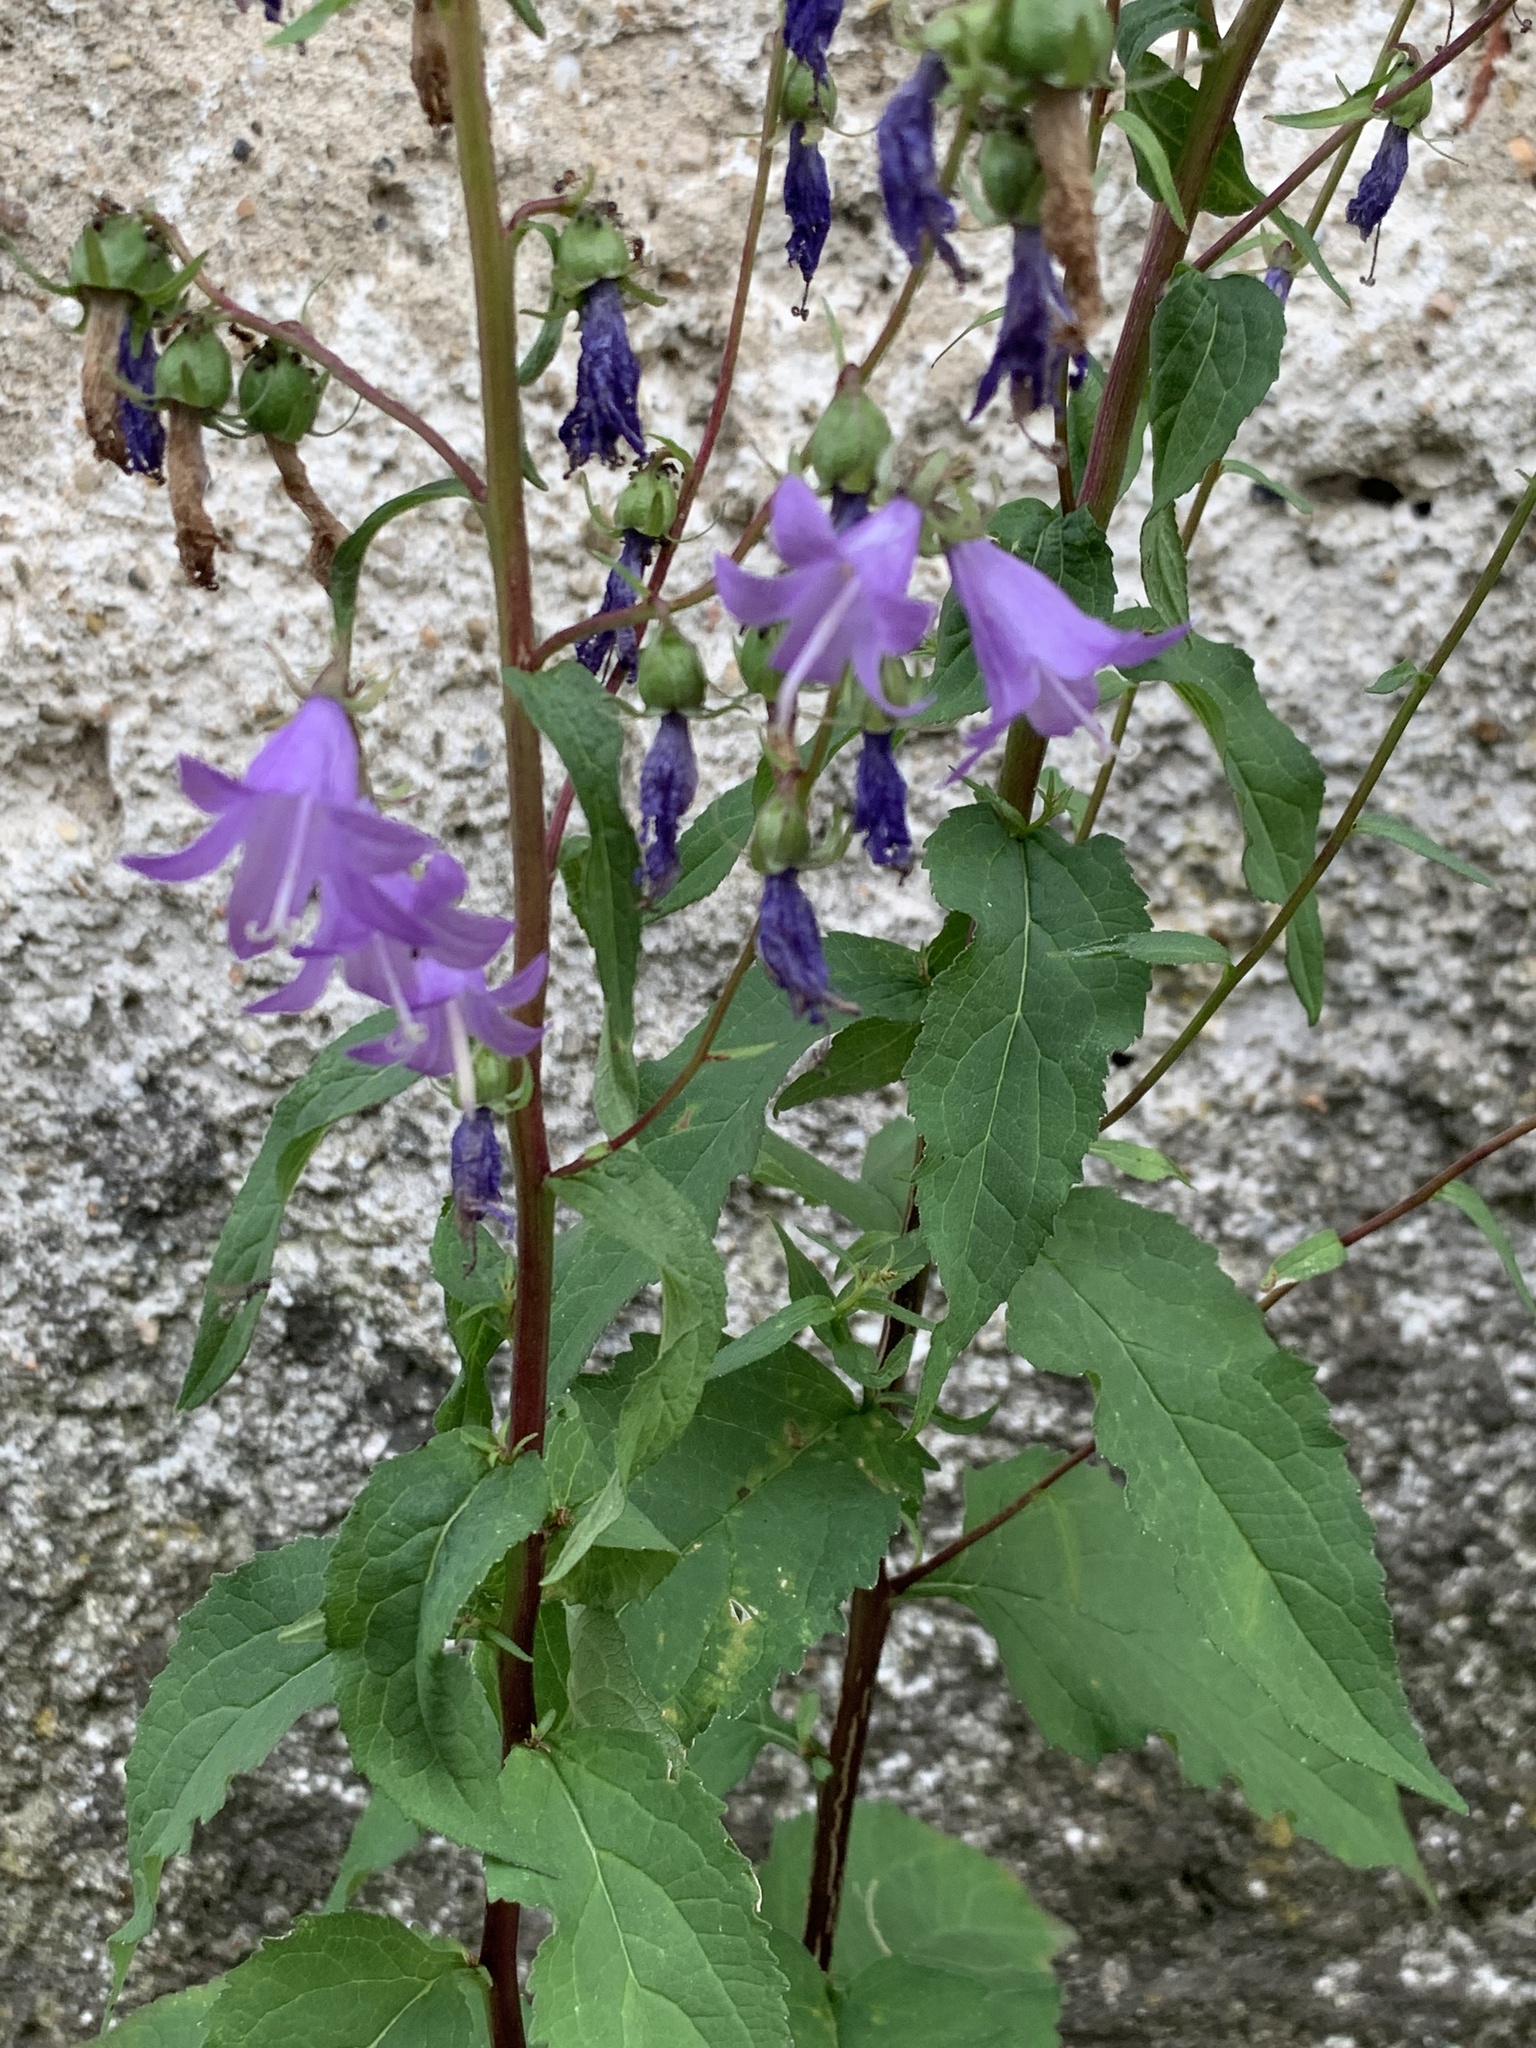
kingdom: Plantae
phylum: Tracheophyta
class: Magnoliopsida
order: Asterales
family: Campanulaceae
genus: Campanula
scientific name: Campanula rapunculoides
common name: Creeping bellflower
